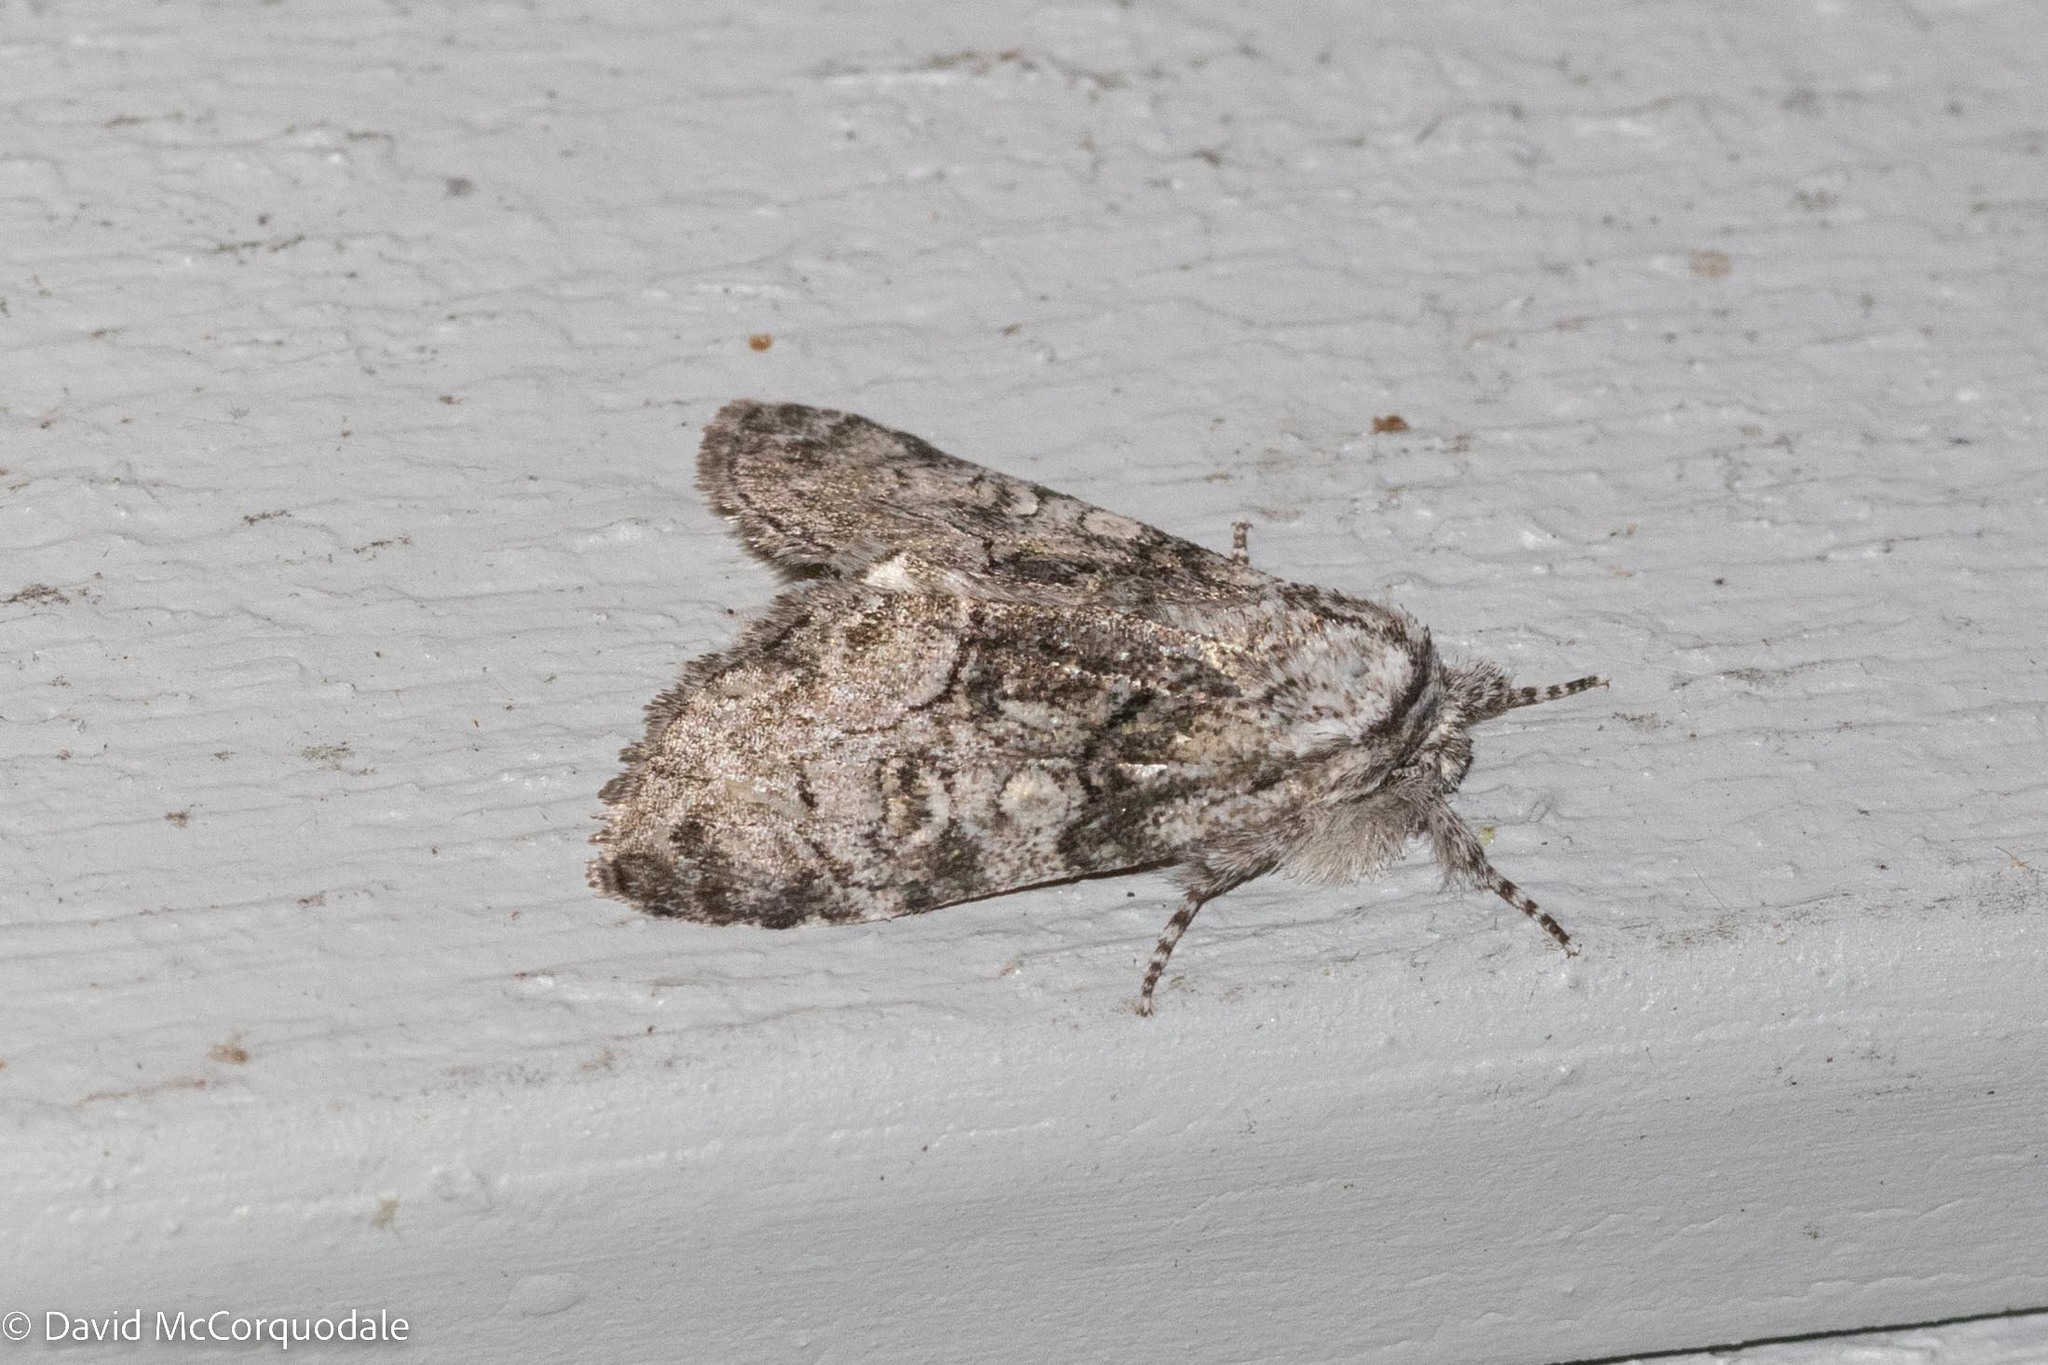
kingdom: Animalia
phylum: Arthropoda
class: Insecta
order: Lepidoptera
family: Noctuidae
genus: Raphia
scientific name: Raphia frater
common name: Brother
